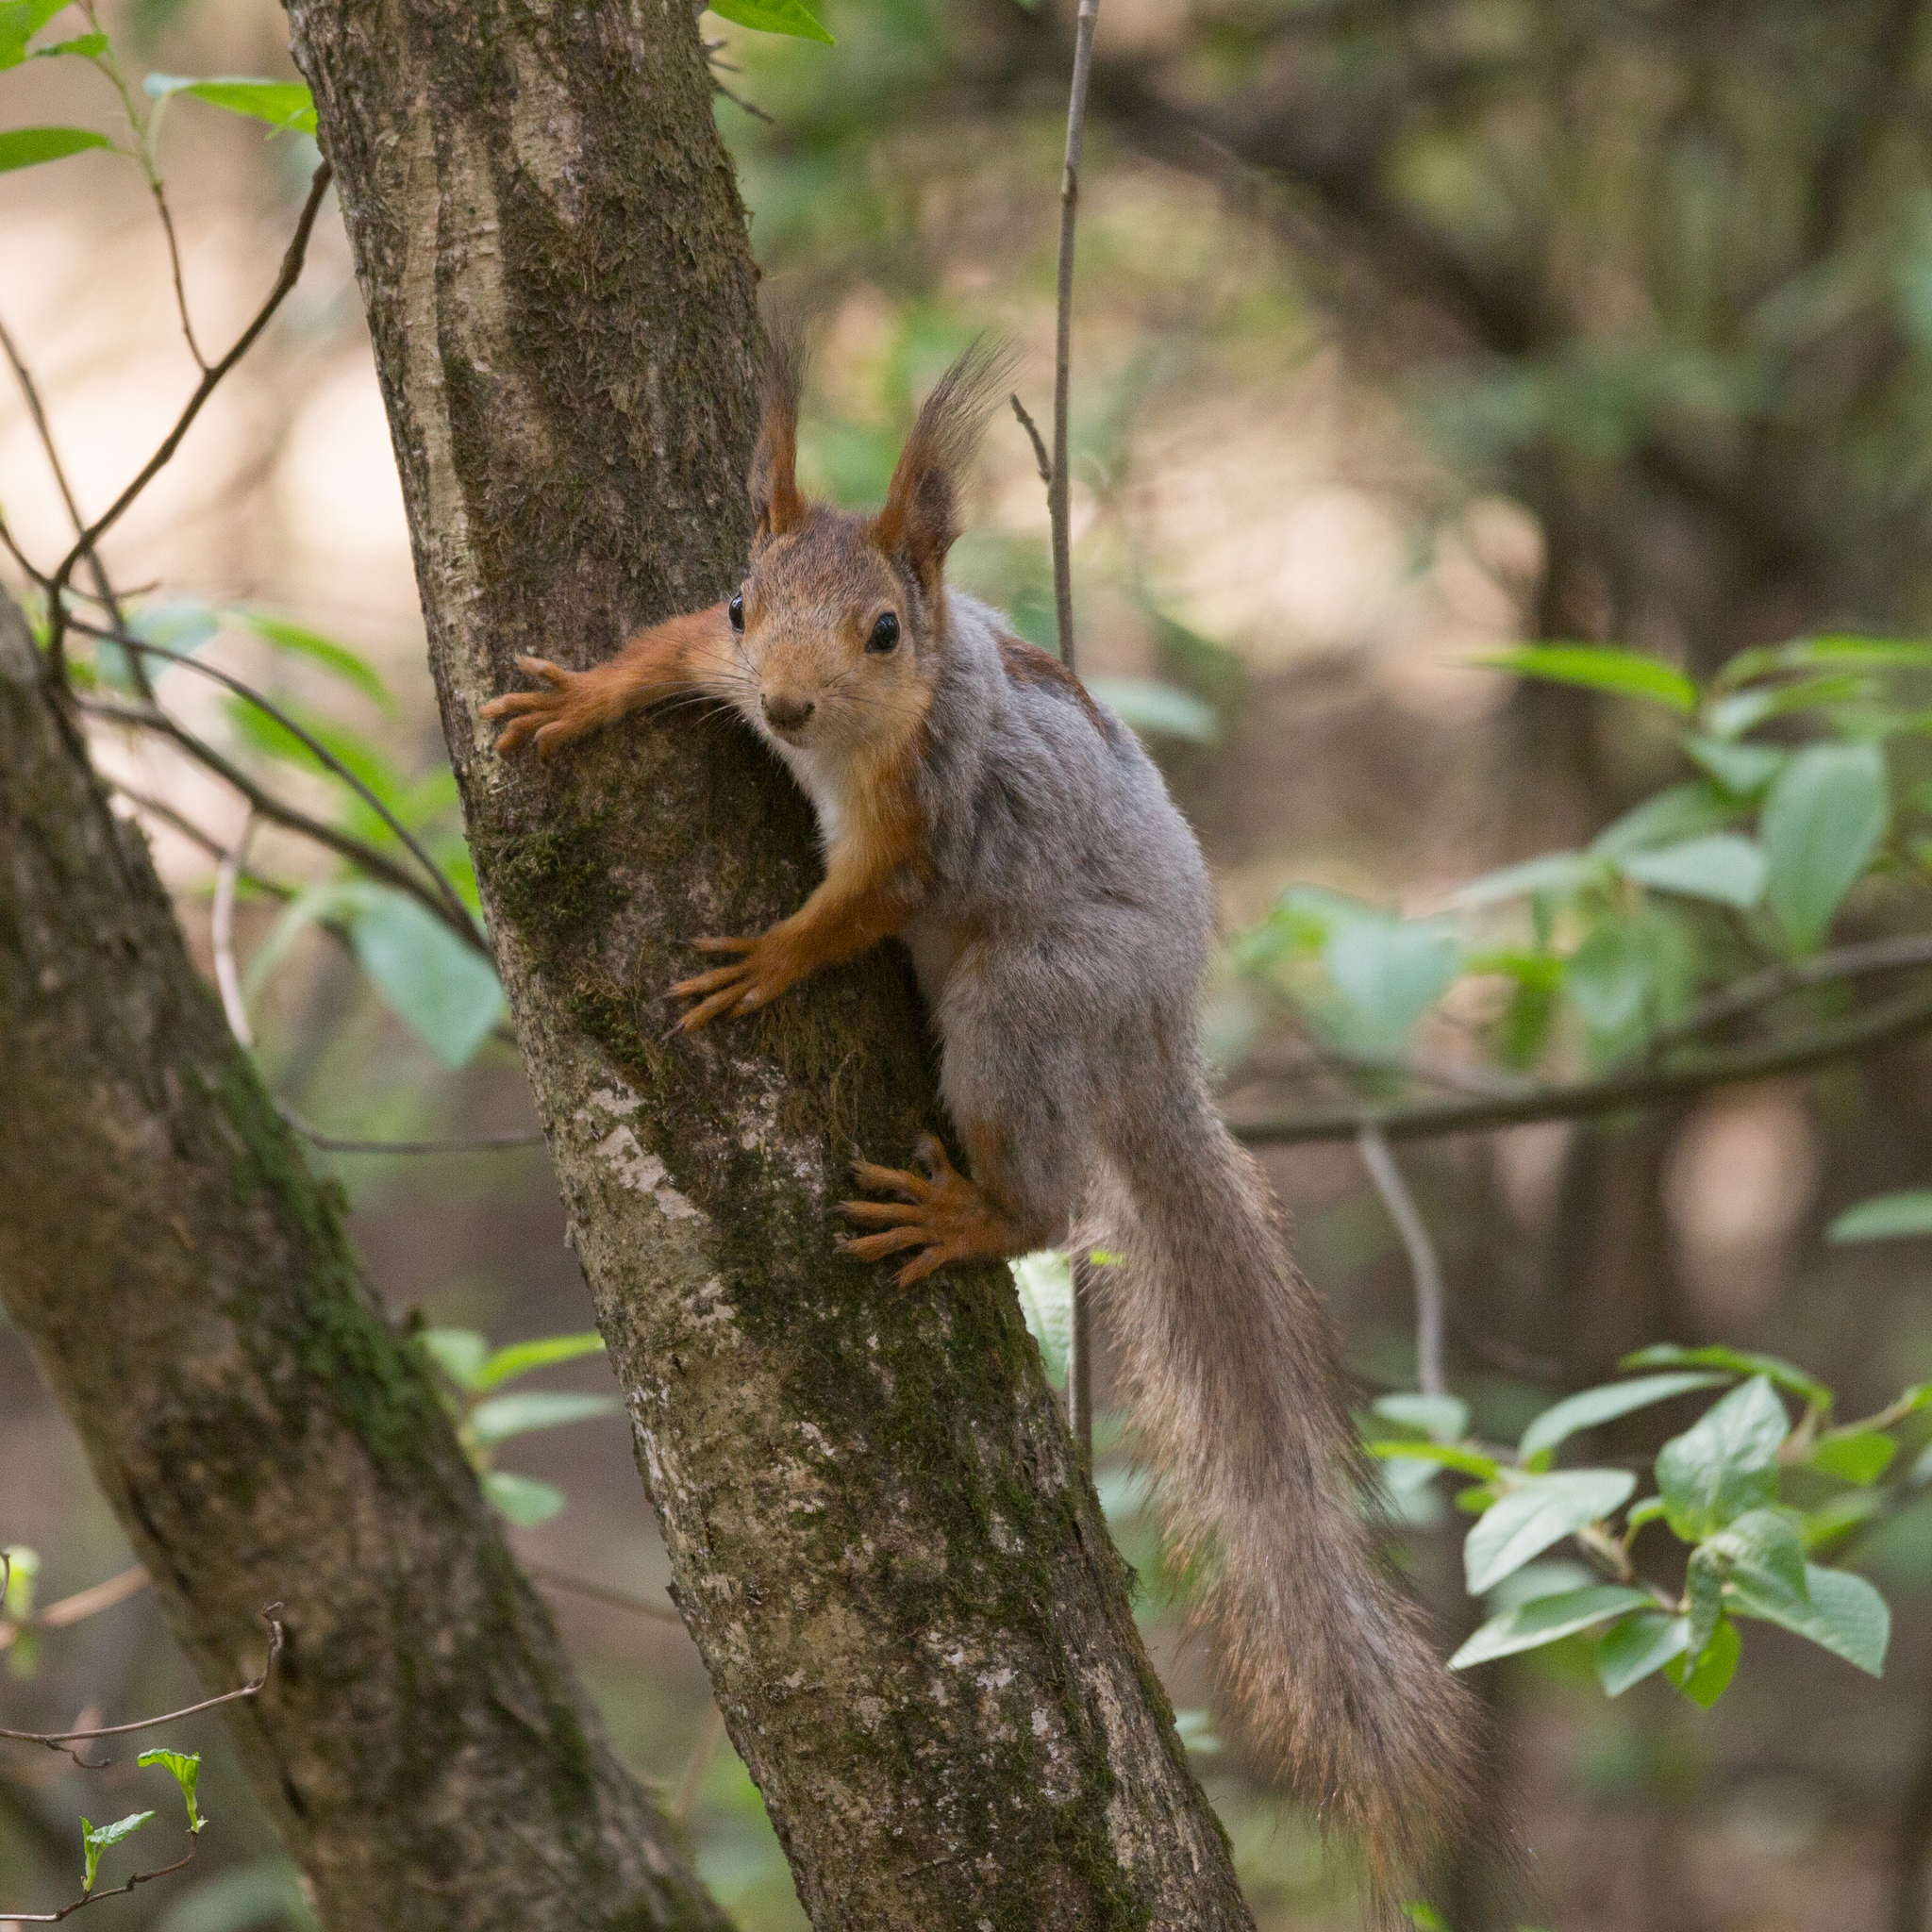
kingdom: Animalia
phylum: Chordata
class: Mammalia
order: Rodentia
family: Sciuridae
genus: Sciurus
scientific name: Sciurus vulgaris
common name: Eurasian red squirrel
